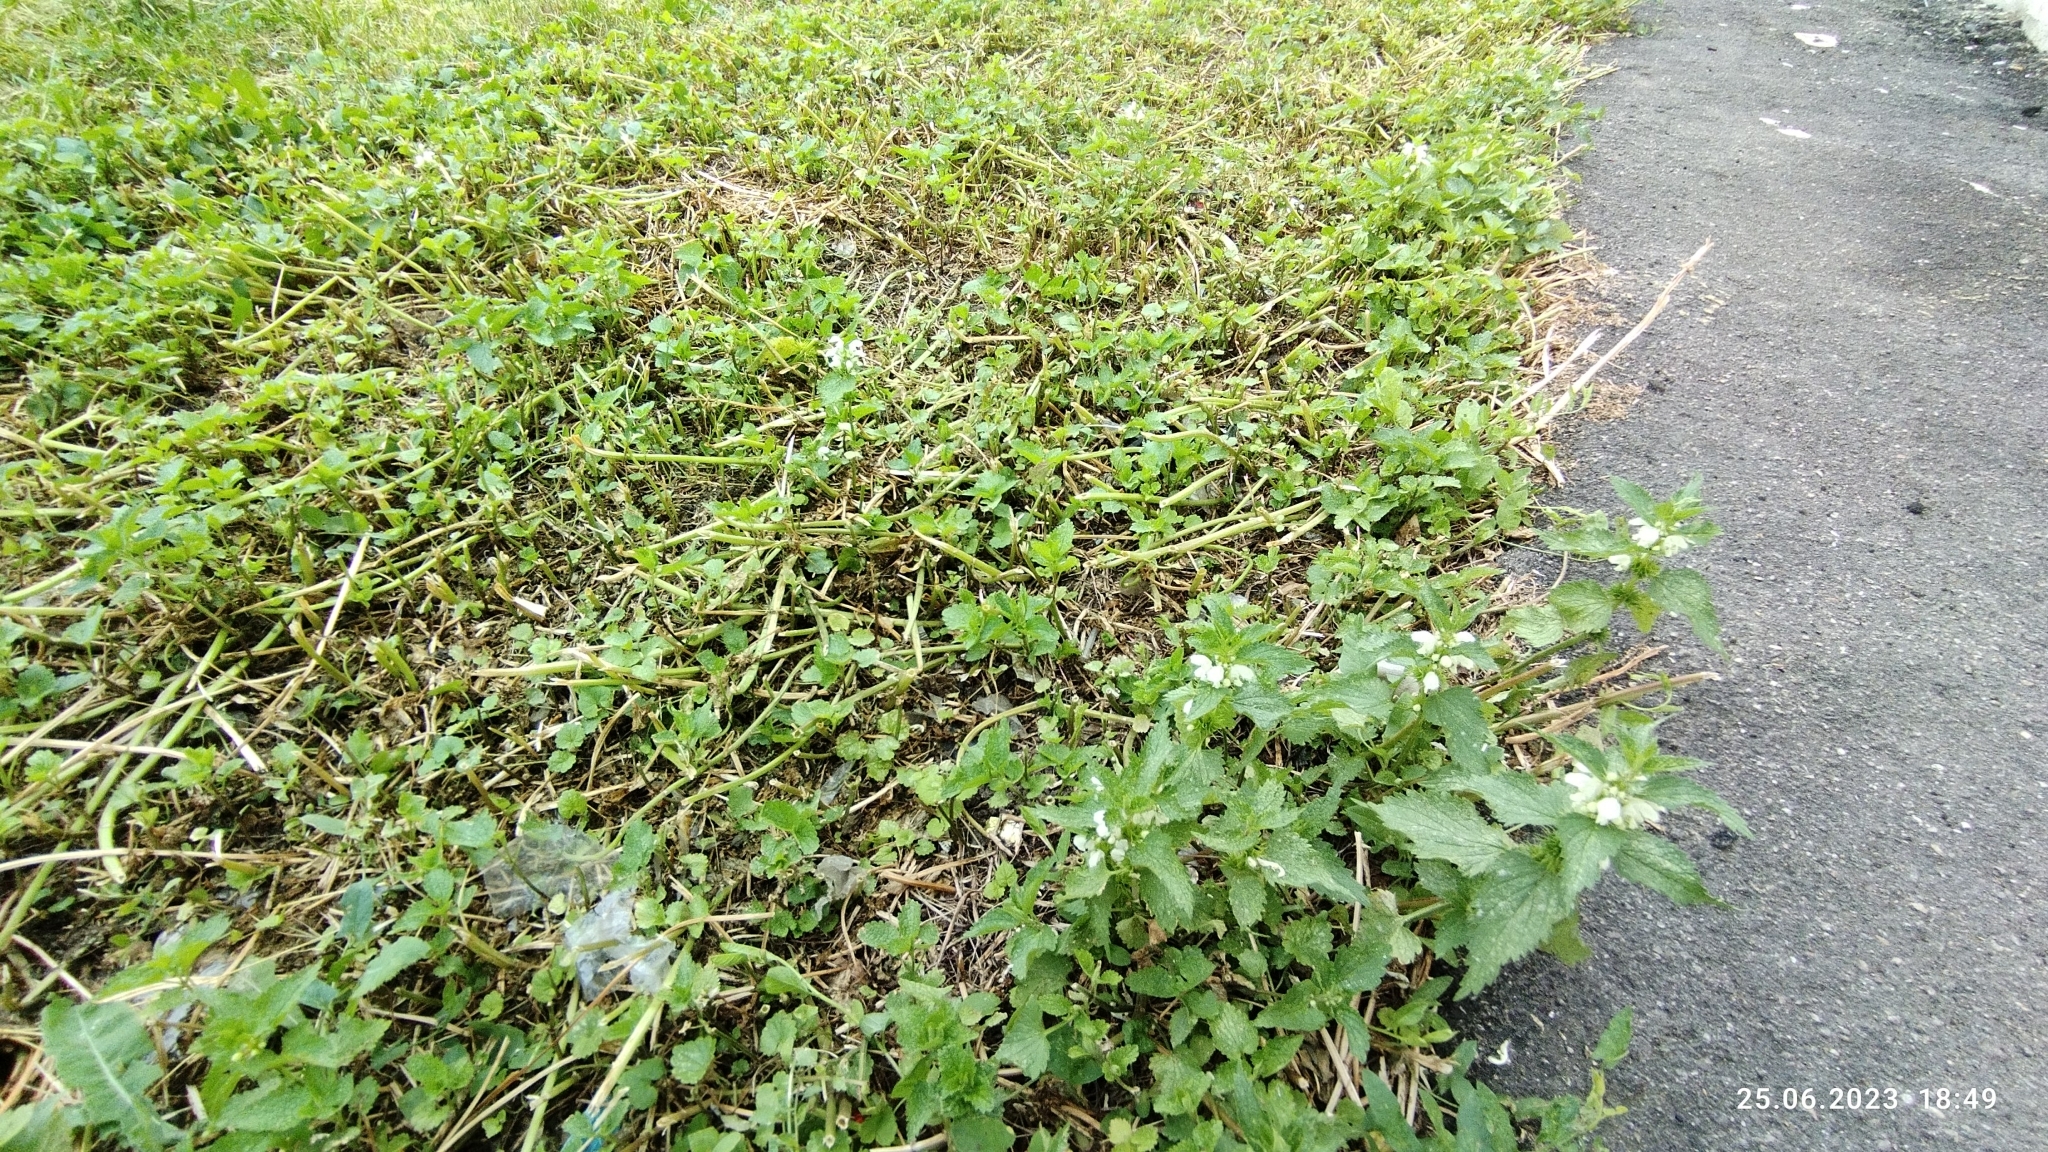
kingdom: Plantae
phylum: Tracheophyta
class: Magnoliopsida
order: Lamiales
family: Lamiaceae
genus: Lamium
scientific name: Lamium album
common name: White dead-nettle
